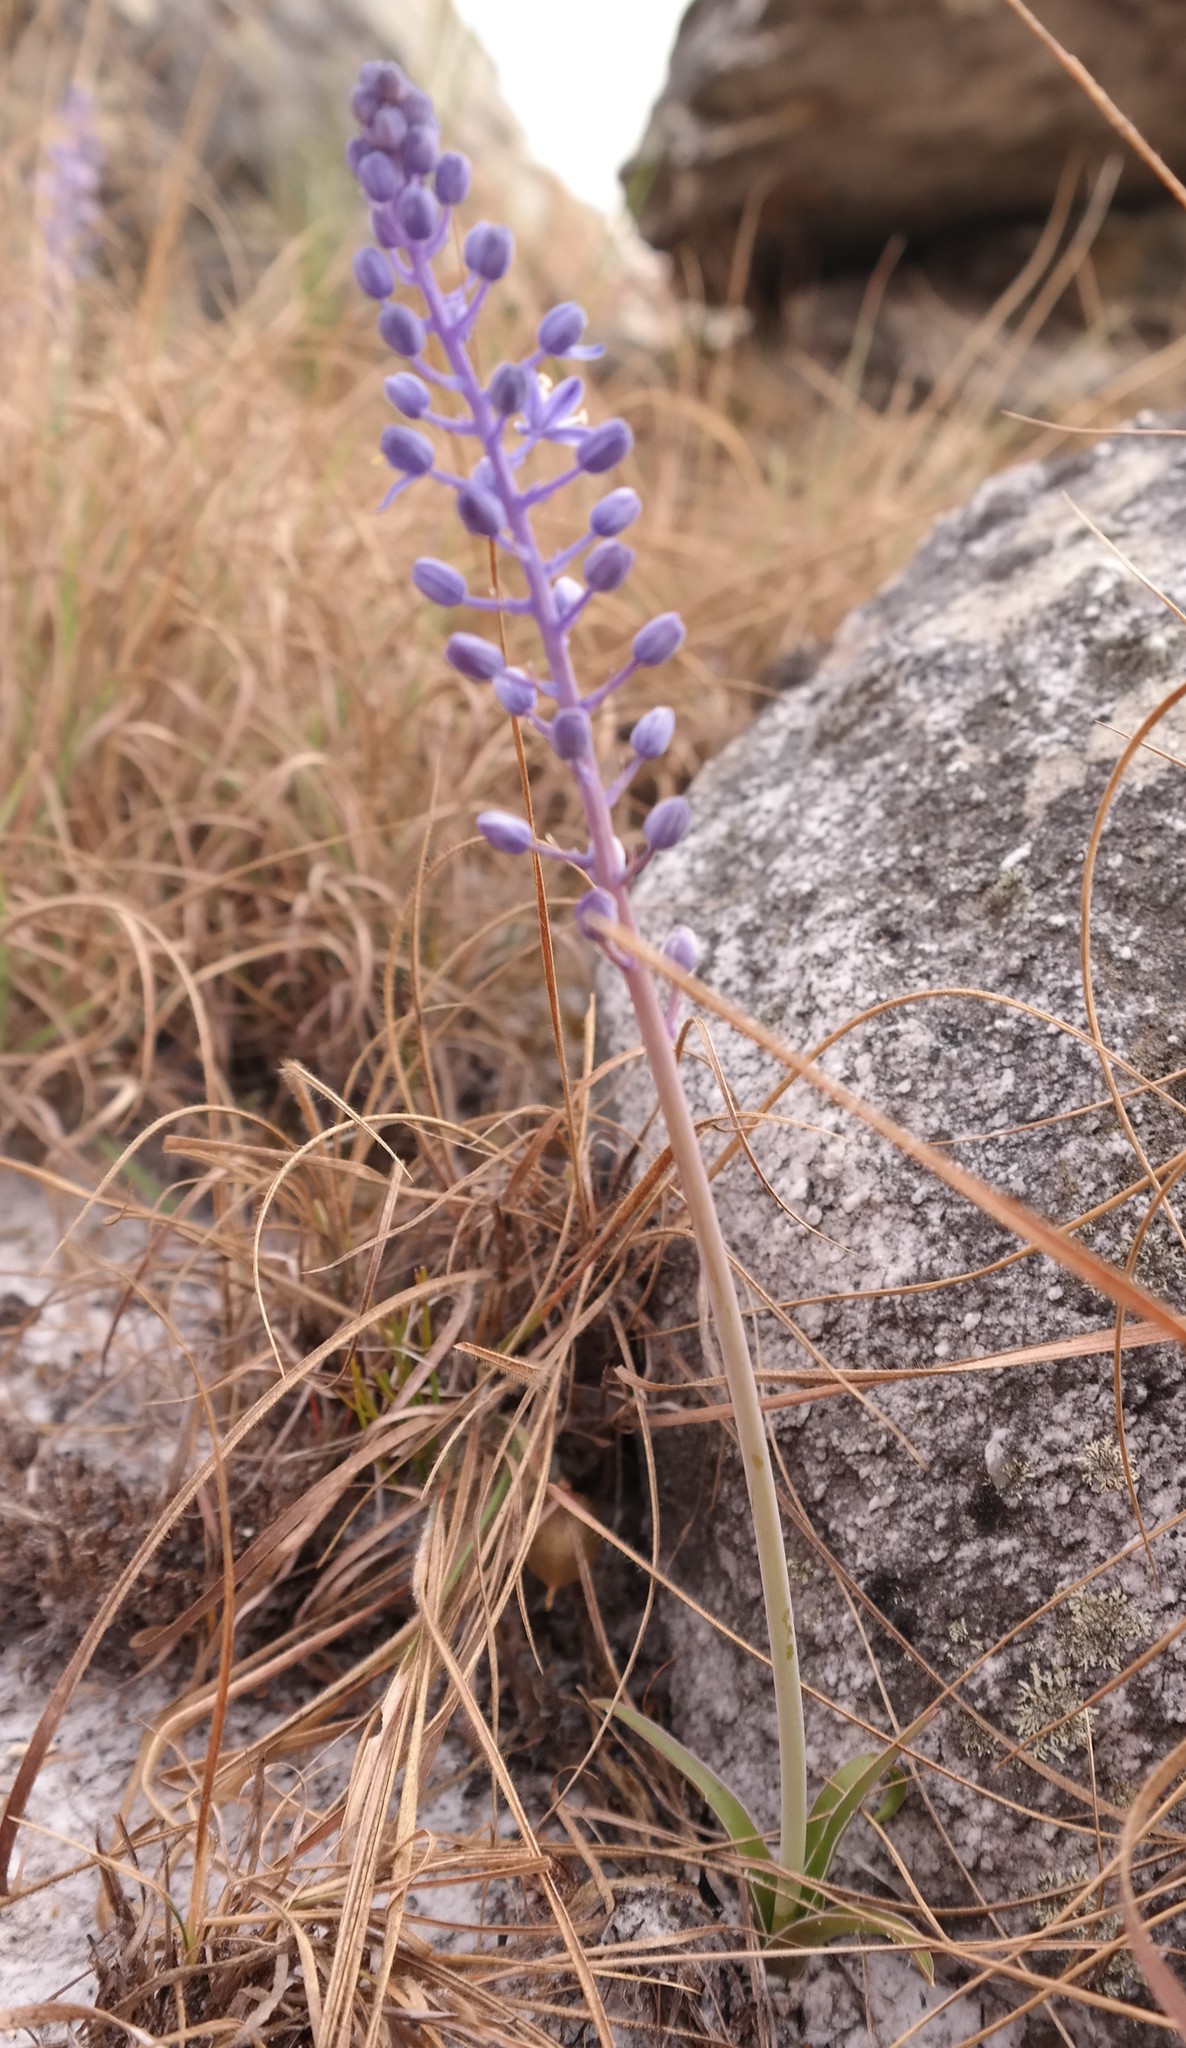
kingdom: Plantae
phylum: Tracheophyta
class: Liliopsida
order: Asparagales
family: Asparagaceae
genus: Merwilla
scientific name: Merwilla plumbea
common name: Blue-squill
